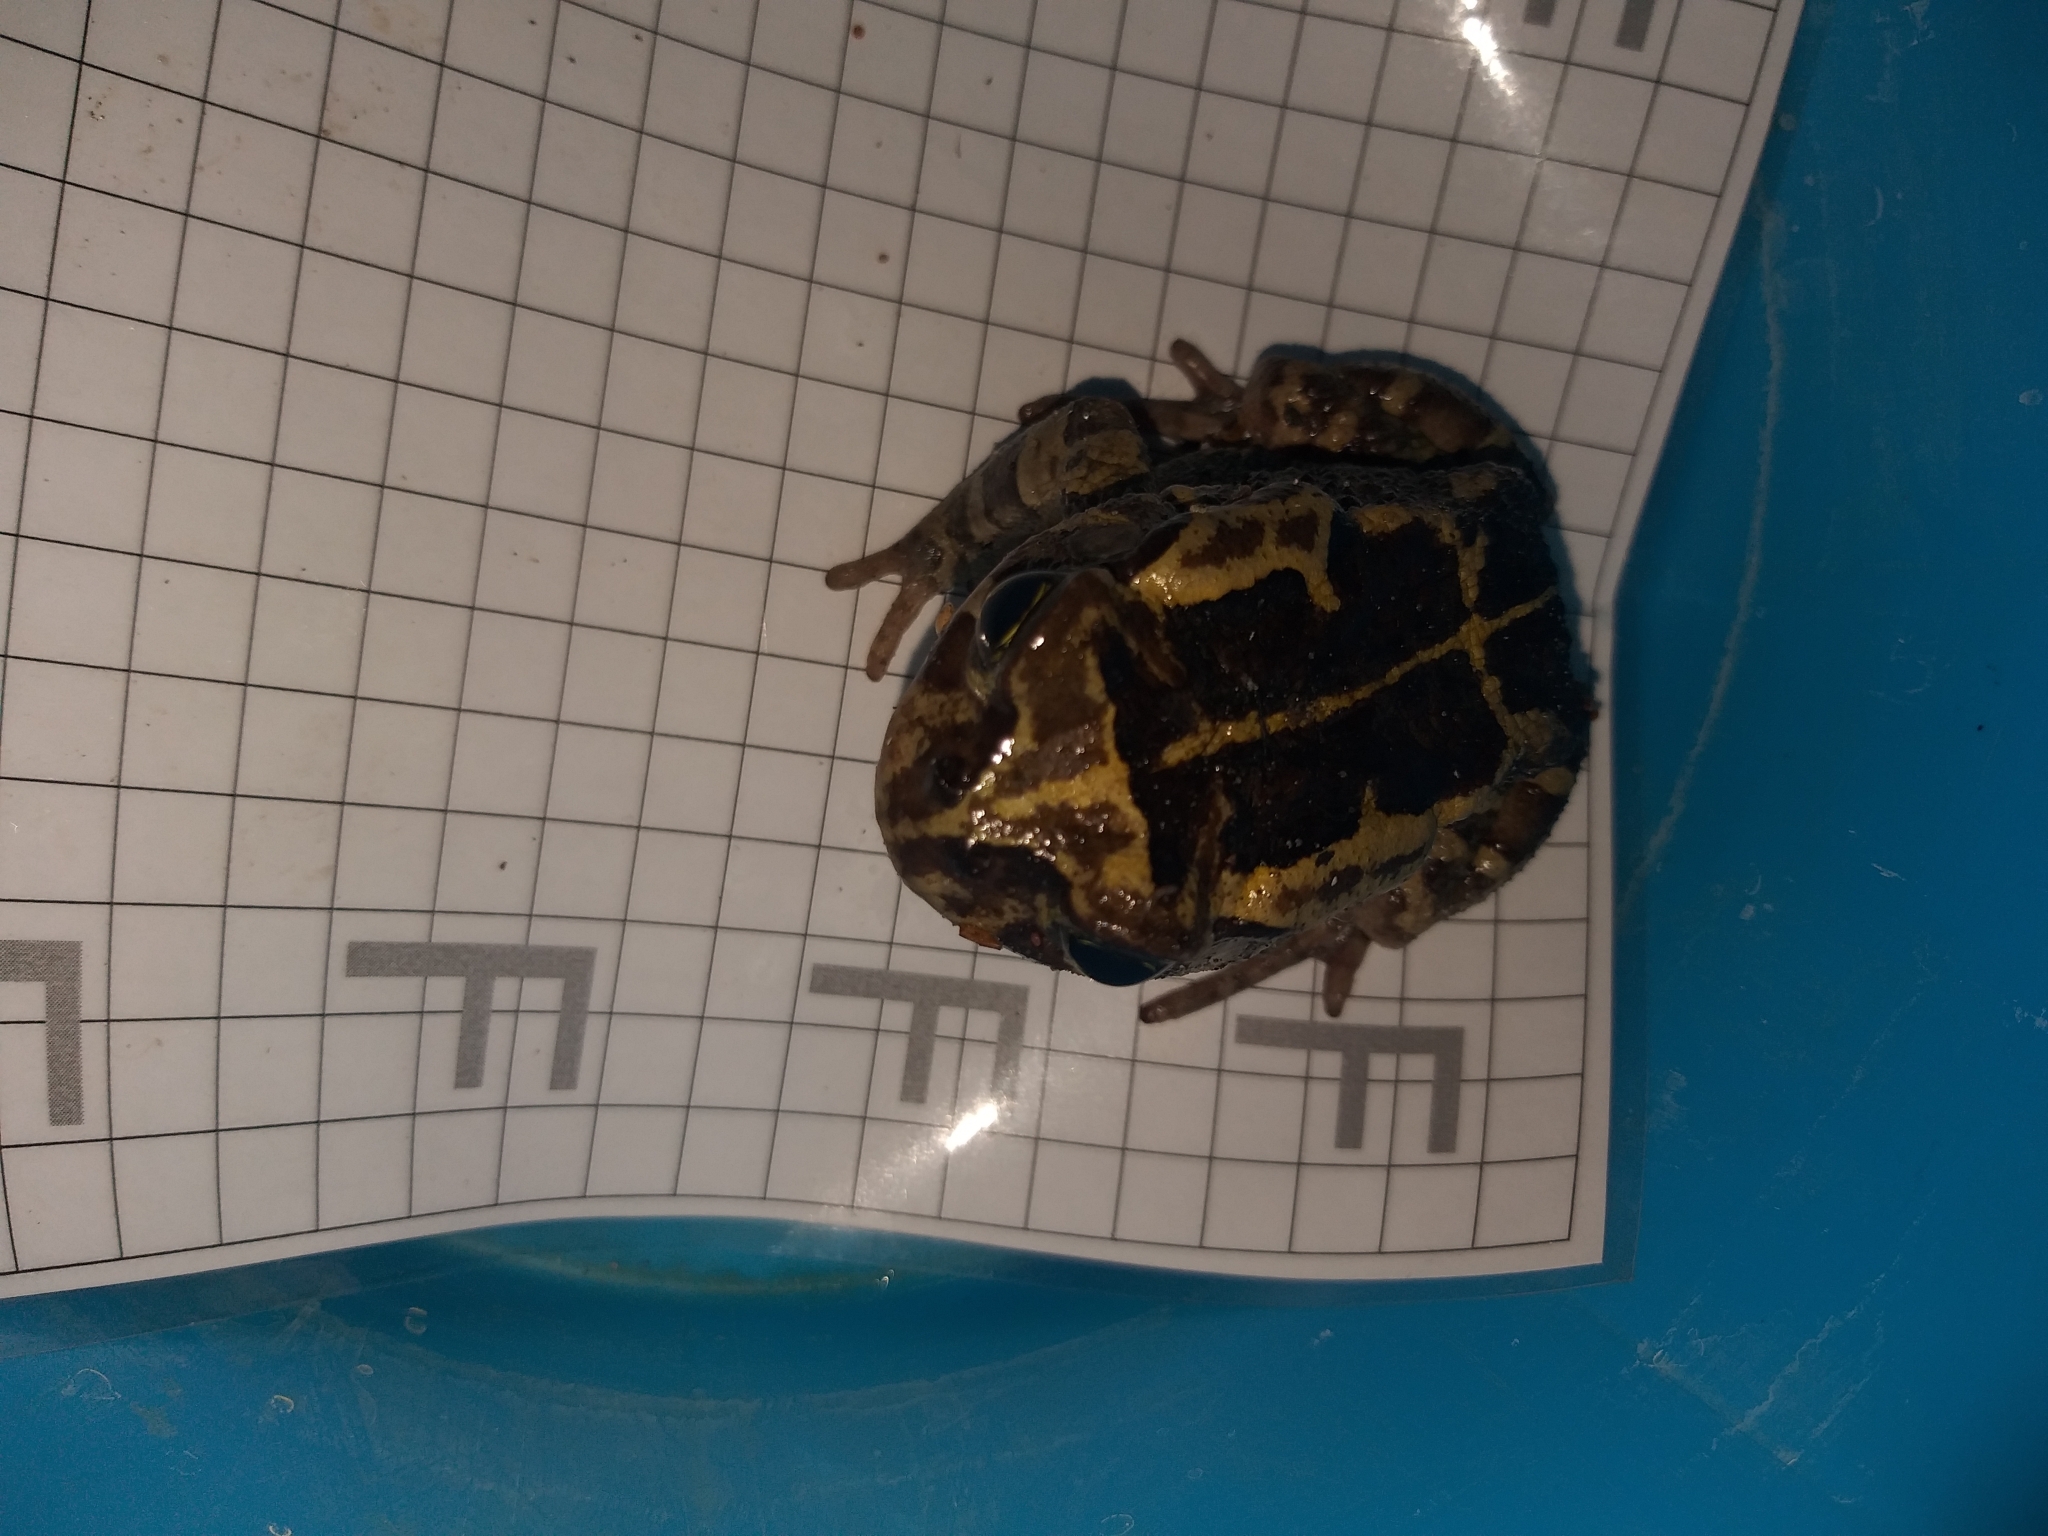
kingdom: Animalia
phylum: Chordata
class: Amphibia
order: Anura
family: Bufonidae
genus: Sclerophrys
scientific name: Sclerophrys pantherina
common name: Panther toad
